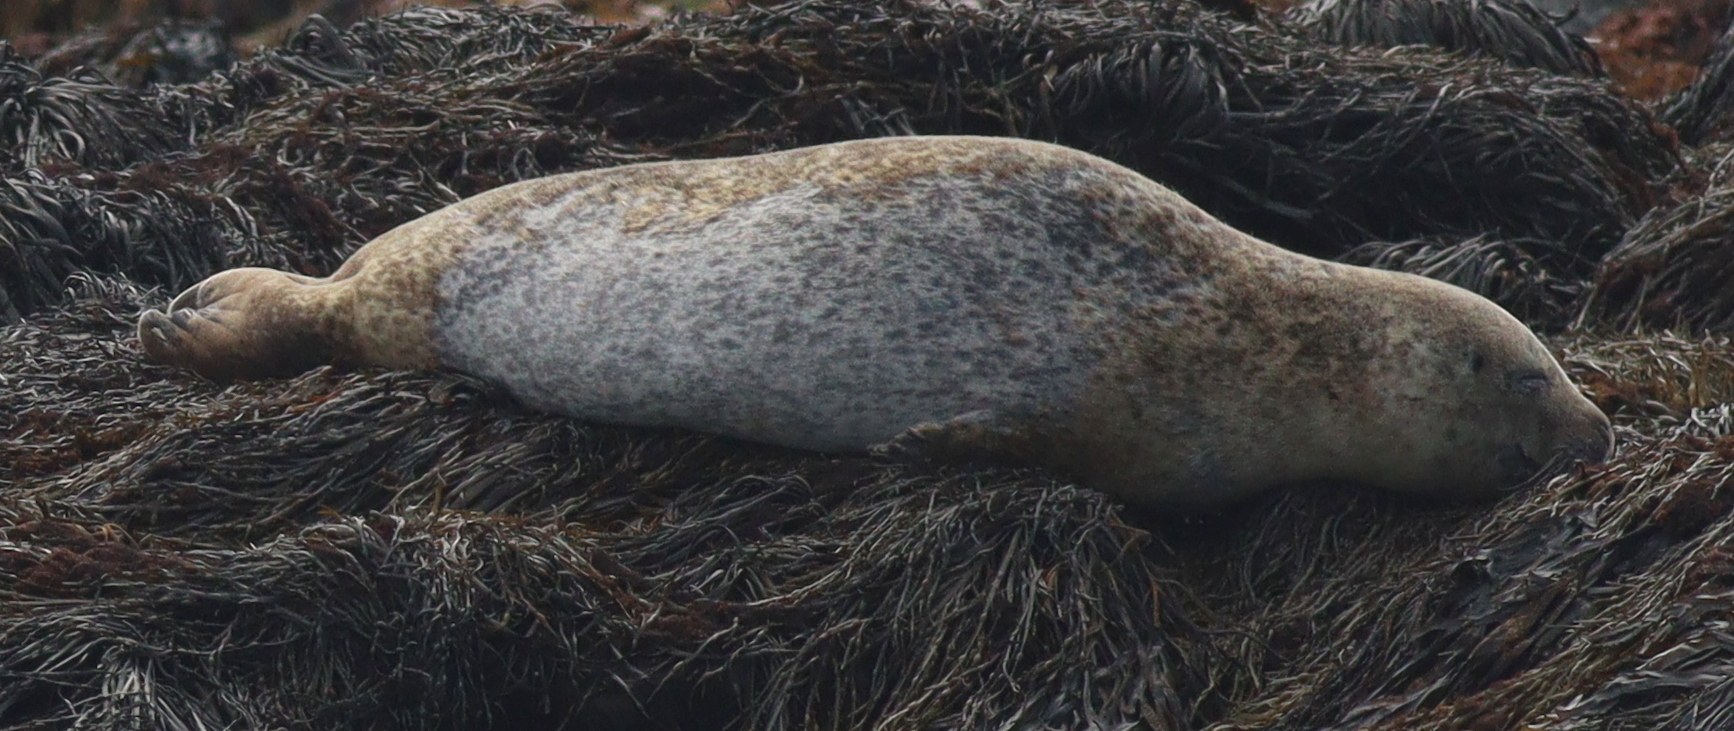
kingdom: Animalia
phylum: Chordata
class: Mammalia
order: Carnivora
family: Phocidae
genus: Phoca
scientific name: Phoca vitulina
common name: Harbor seal
